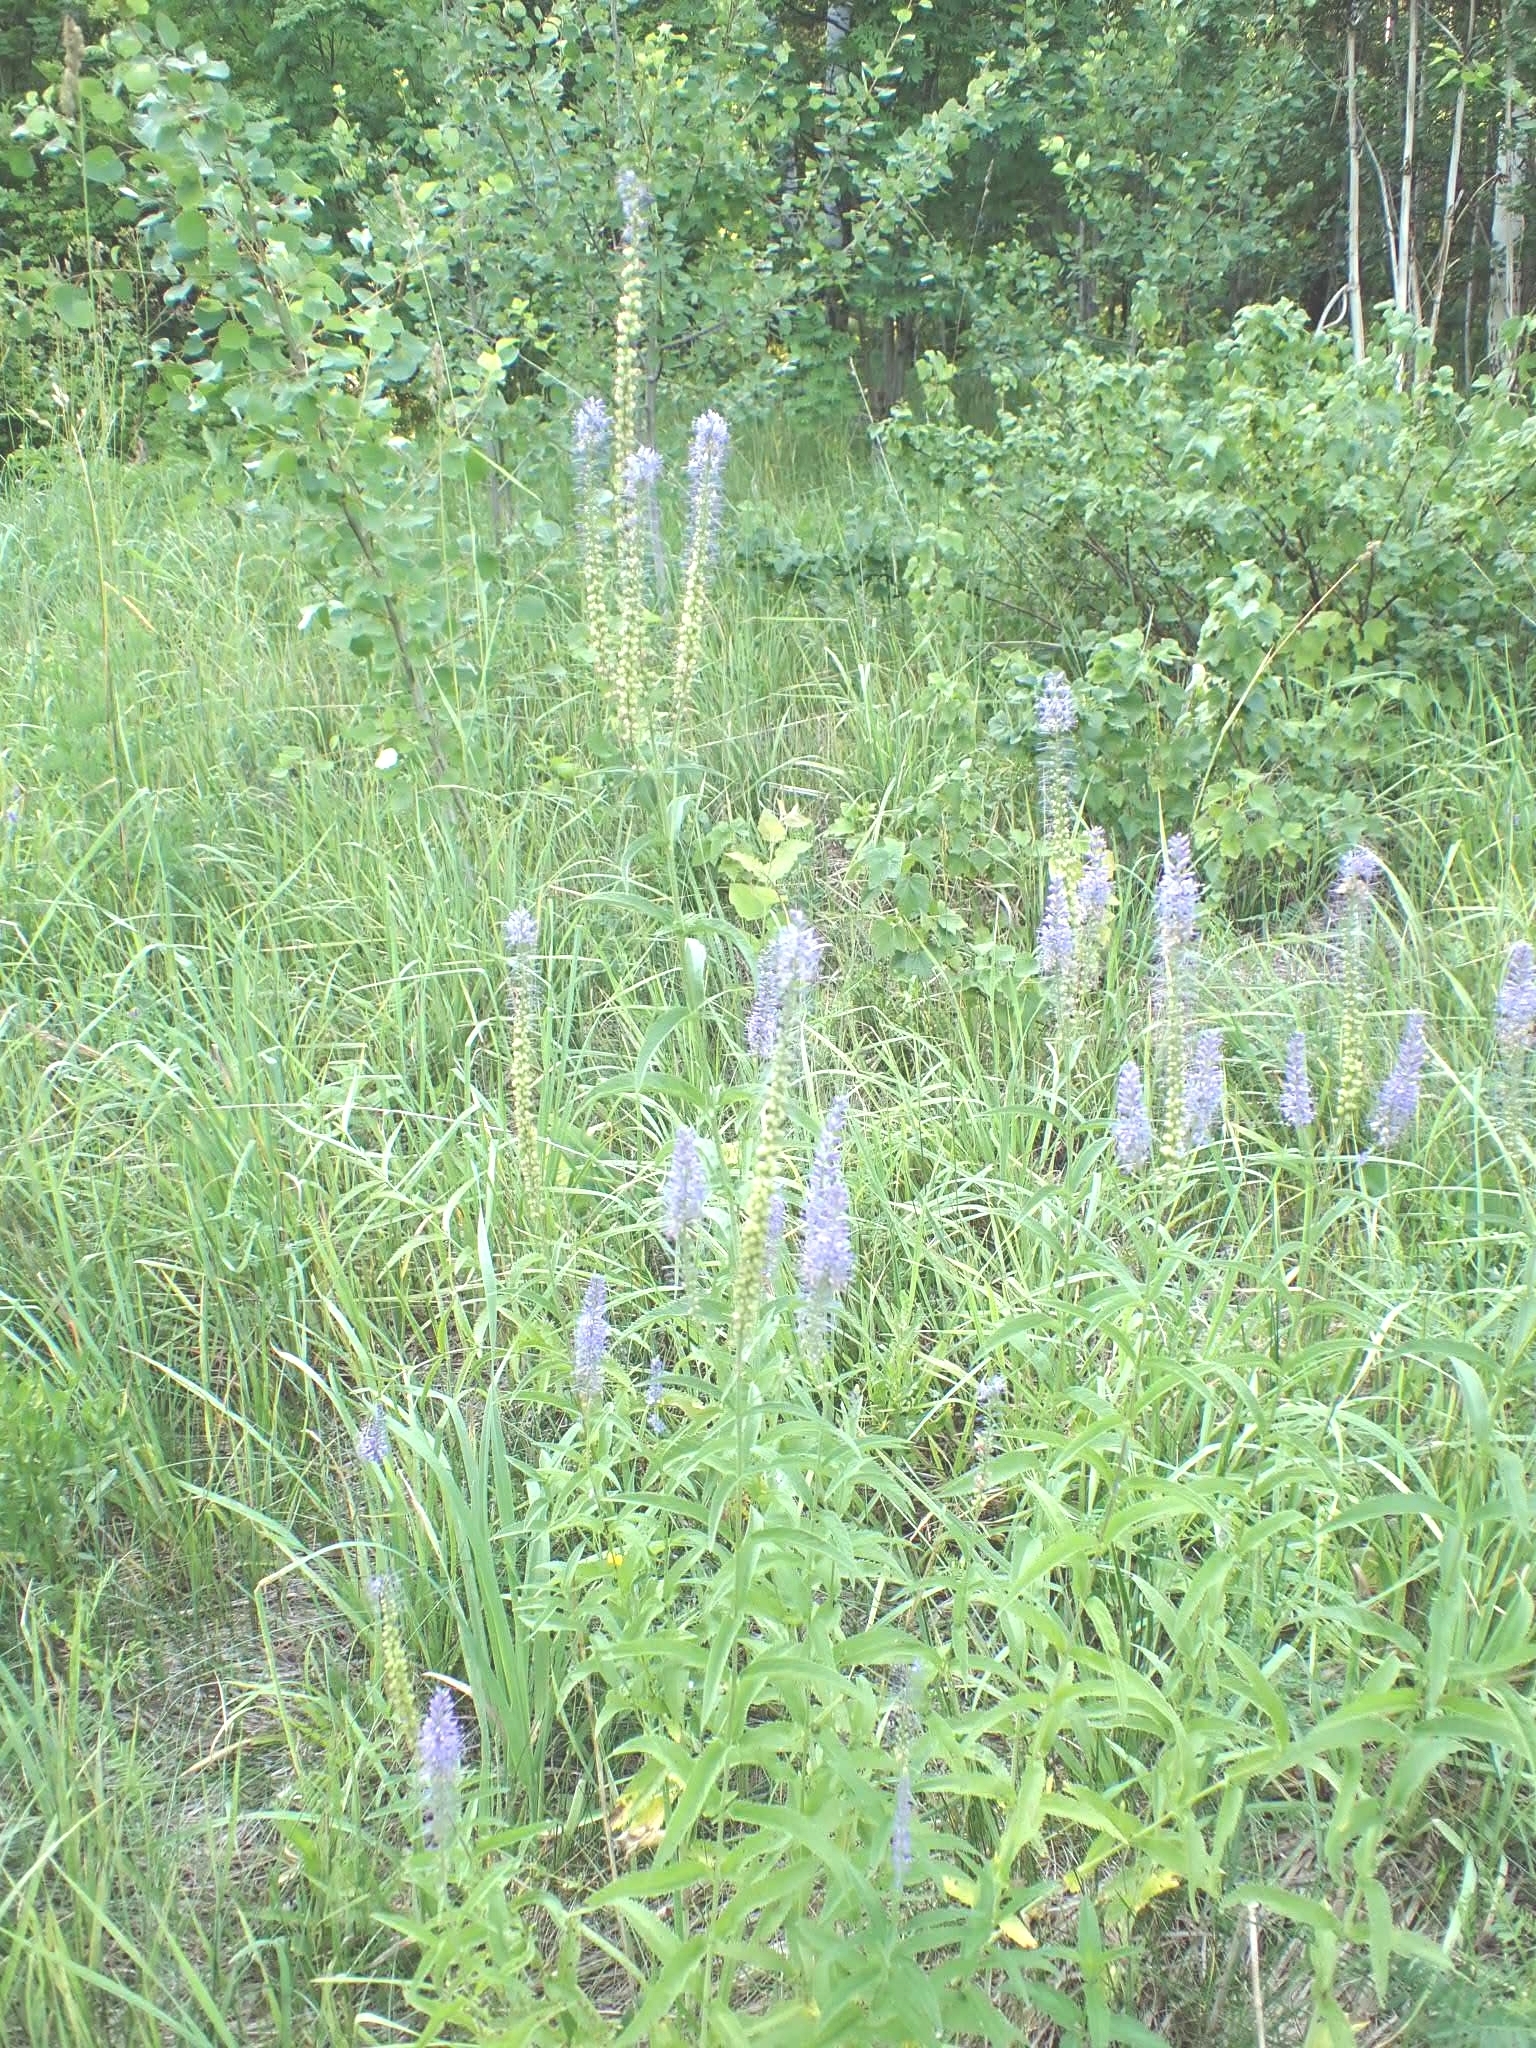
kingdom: Plantae
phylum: Tracheophyta
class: Magnoliopsida
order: Lamiales
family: Plantaginaceae
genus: Veronica
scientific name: Veronica longifolia
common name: Garden speedwell
